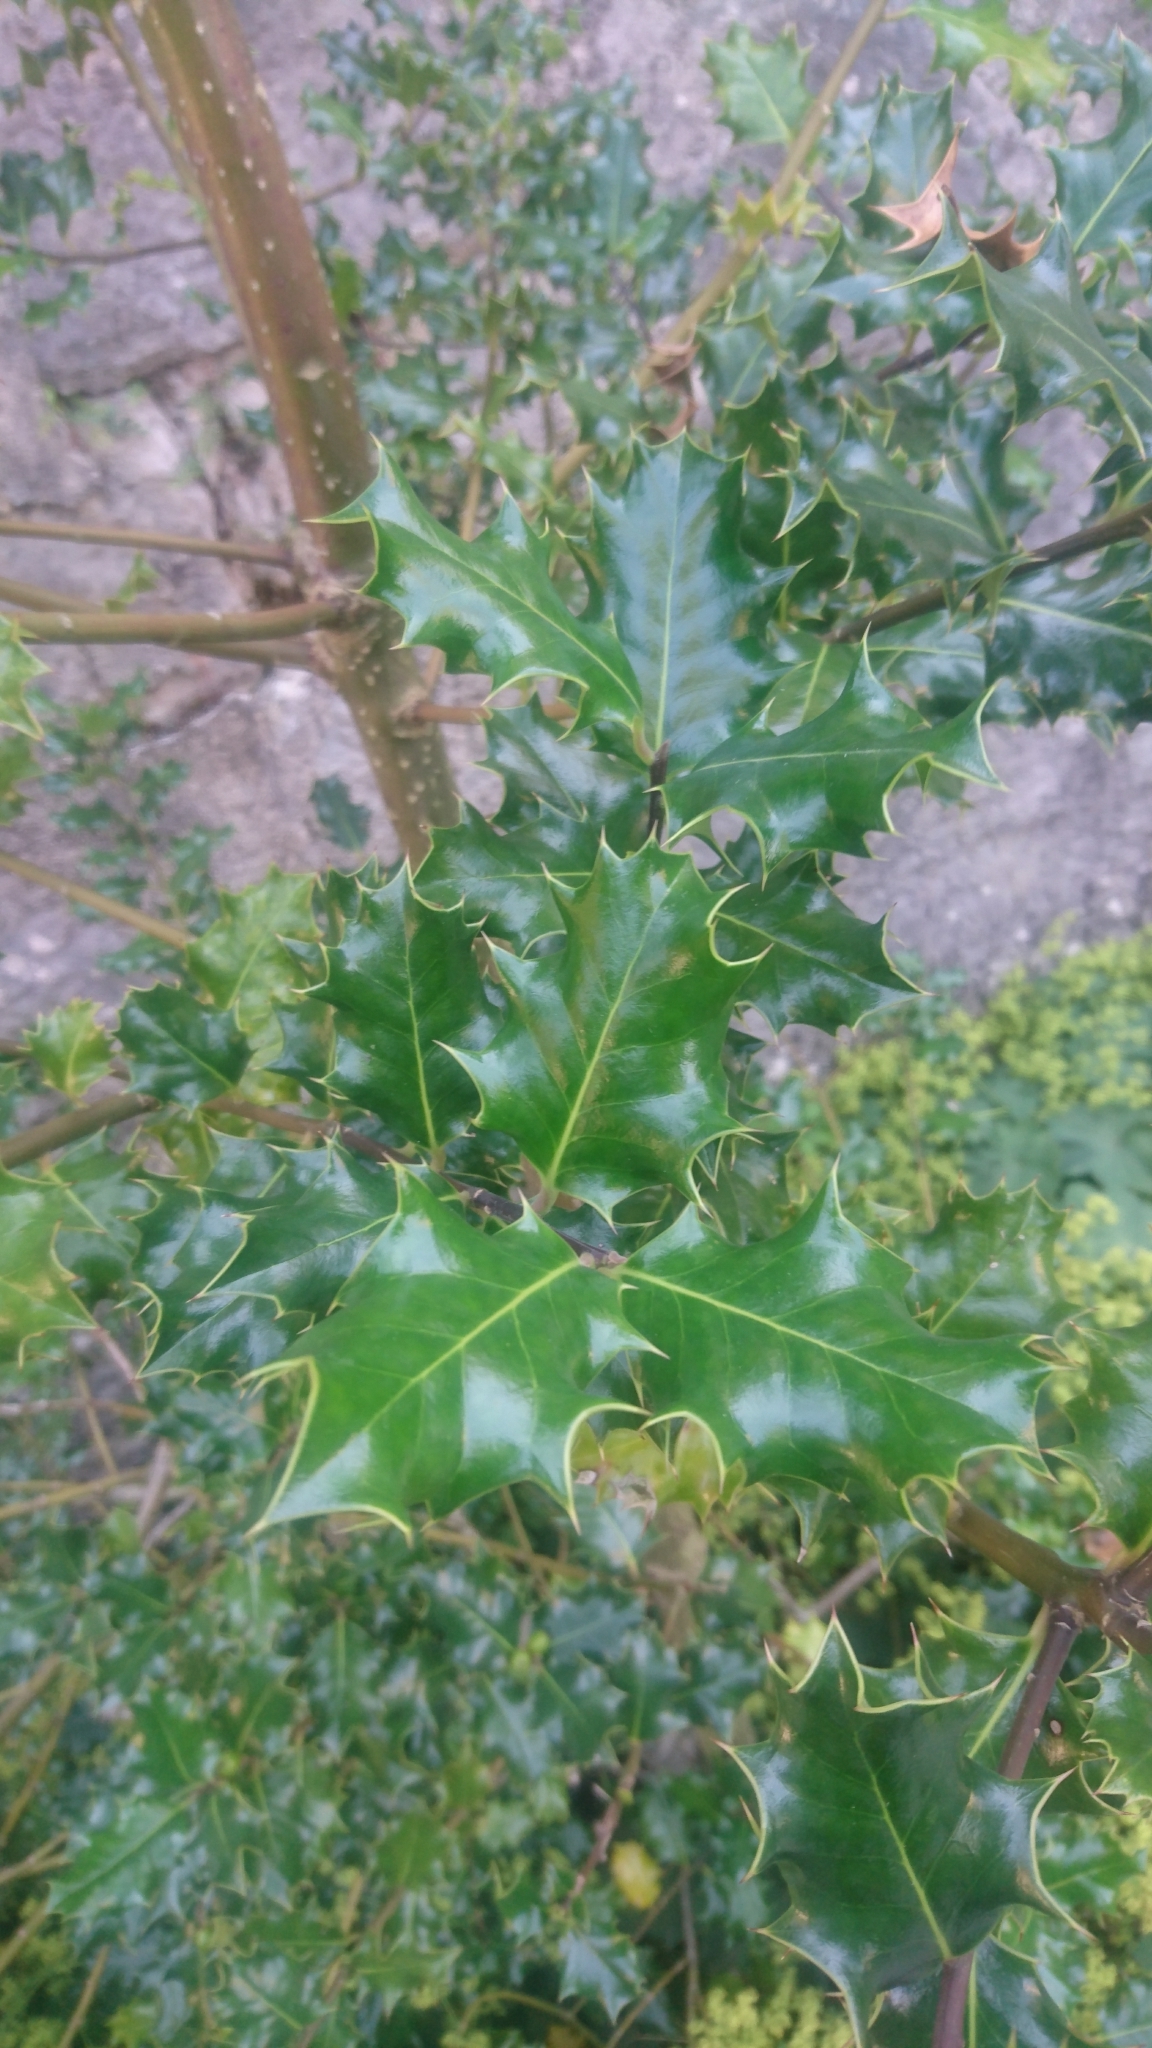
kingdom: Plantae
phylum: Tracheophyta
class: Magnoliopsida
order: Aquifoliales
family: Aquifoliaceae
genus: Ilex
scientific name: Ilex aquifolium
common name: English holly
